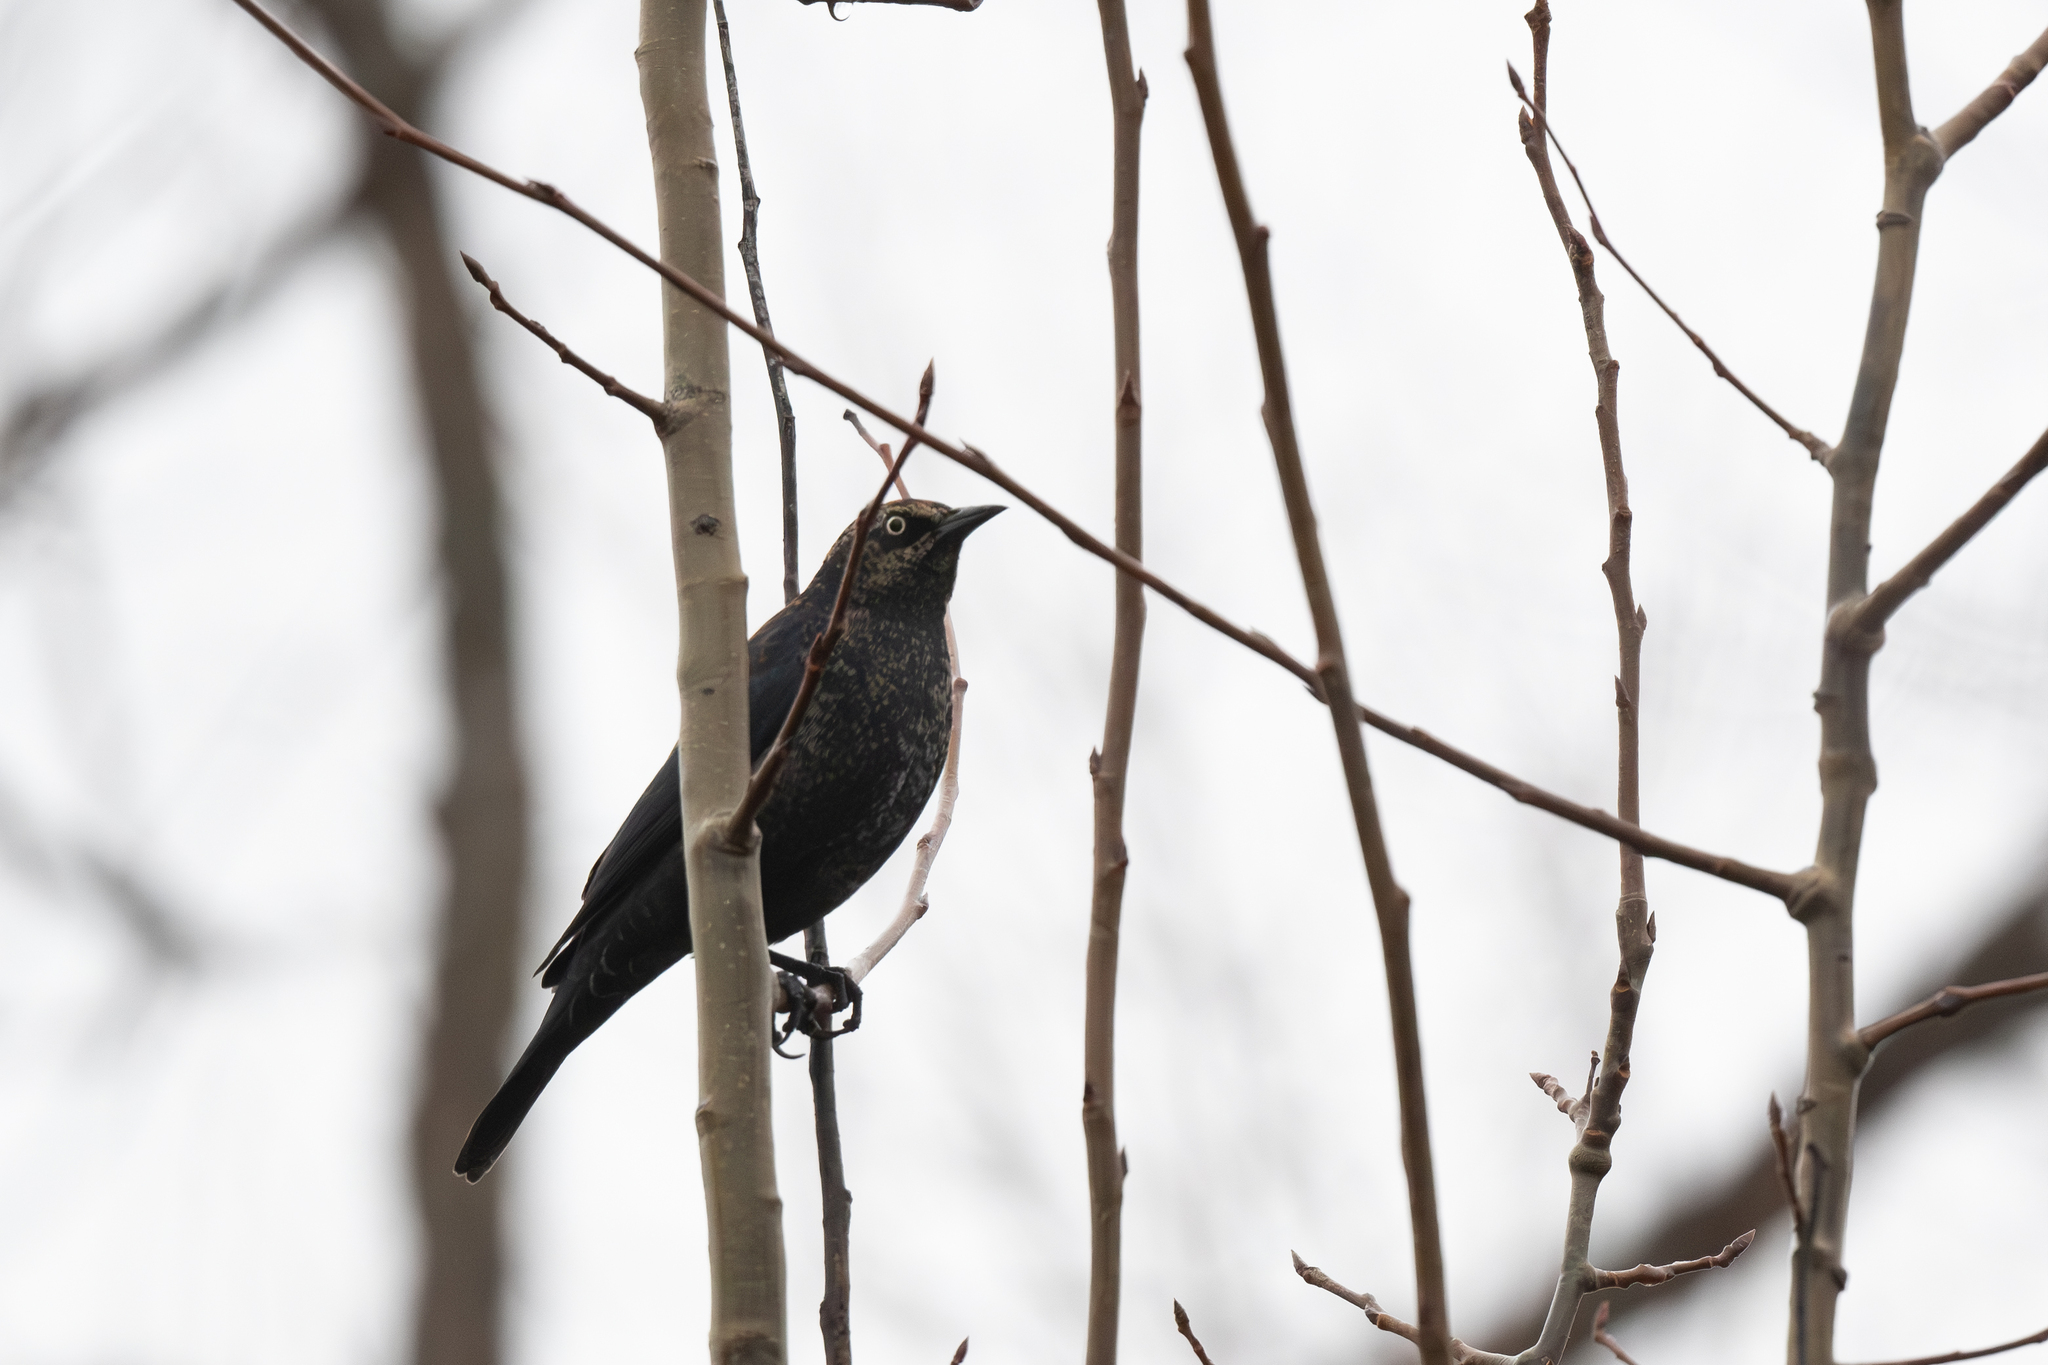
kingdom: Animalia
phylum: Chordata
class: Aves
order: Passeriformes
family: Icteridae
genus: Euphagus
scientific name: Euphagus carolinus
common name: Rusty blackbird
